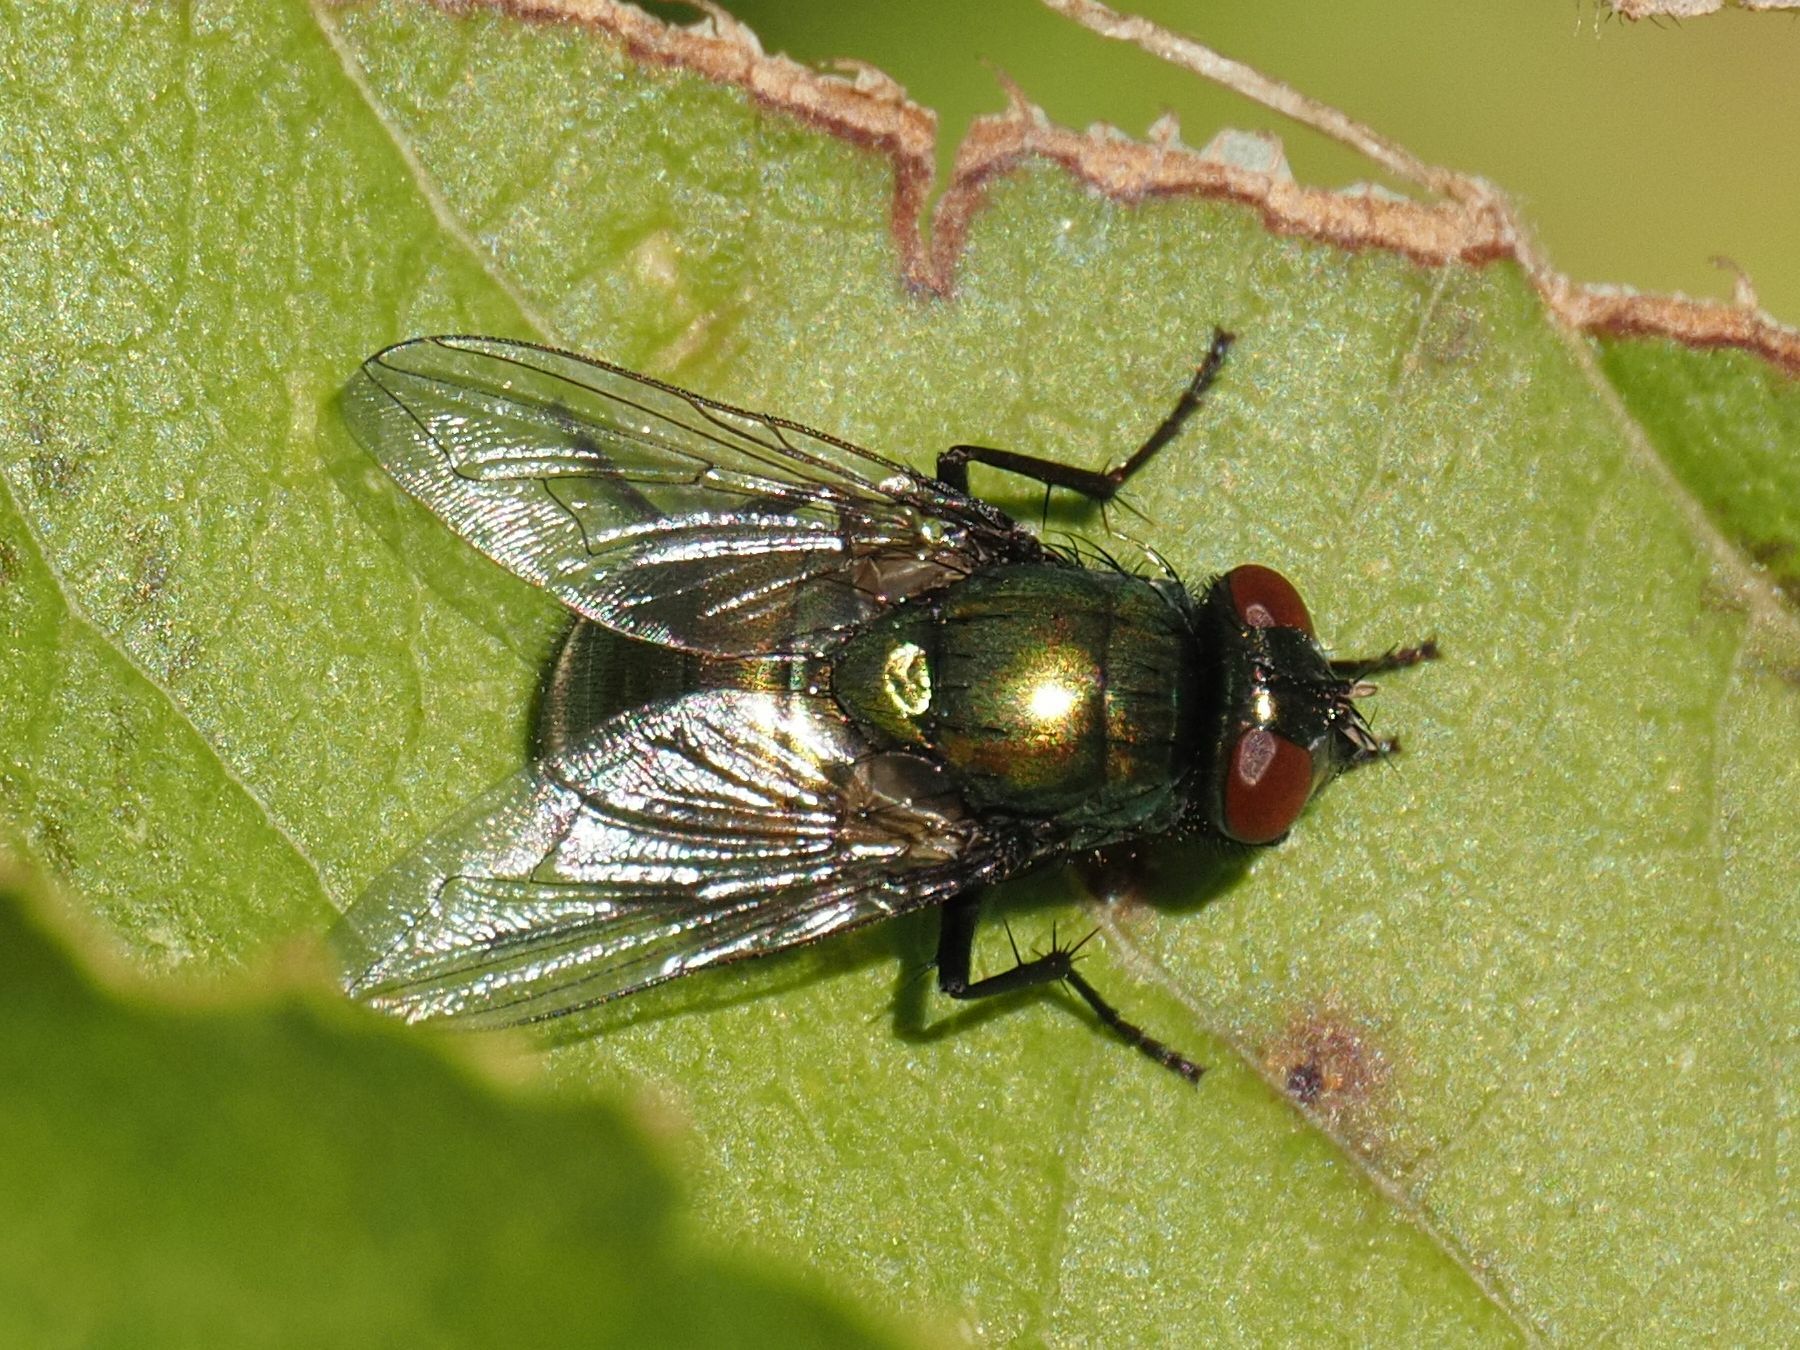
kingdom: Animalia
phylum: Arthropoda
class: Insecta
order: Diptera
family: Muscidae
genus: Neomyia
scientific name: Neomyia cornicina
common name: House fly
